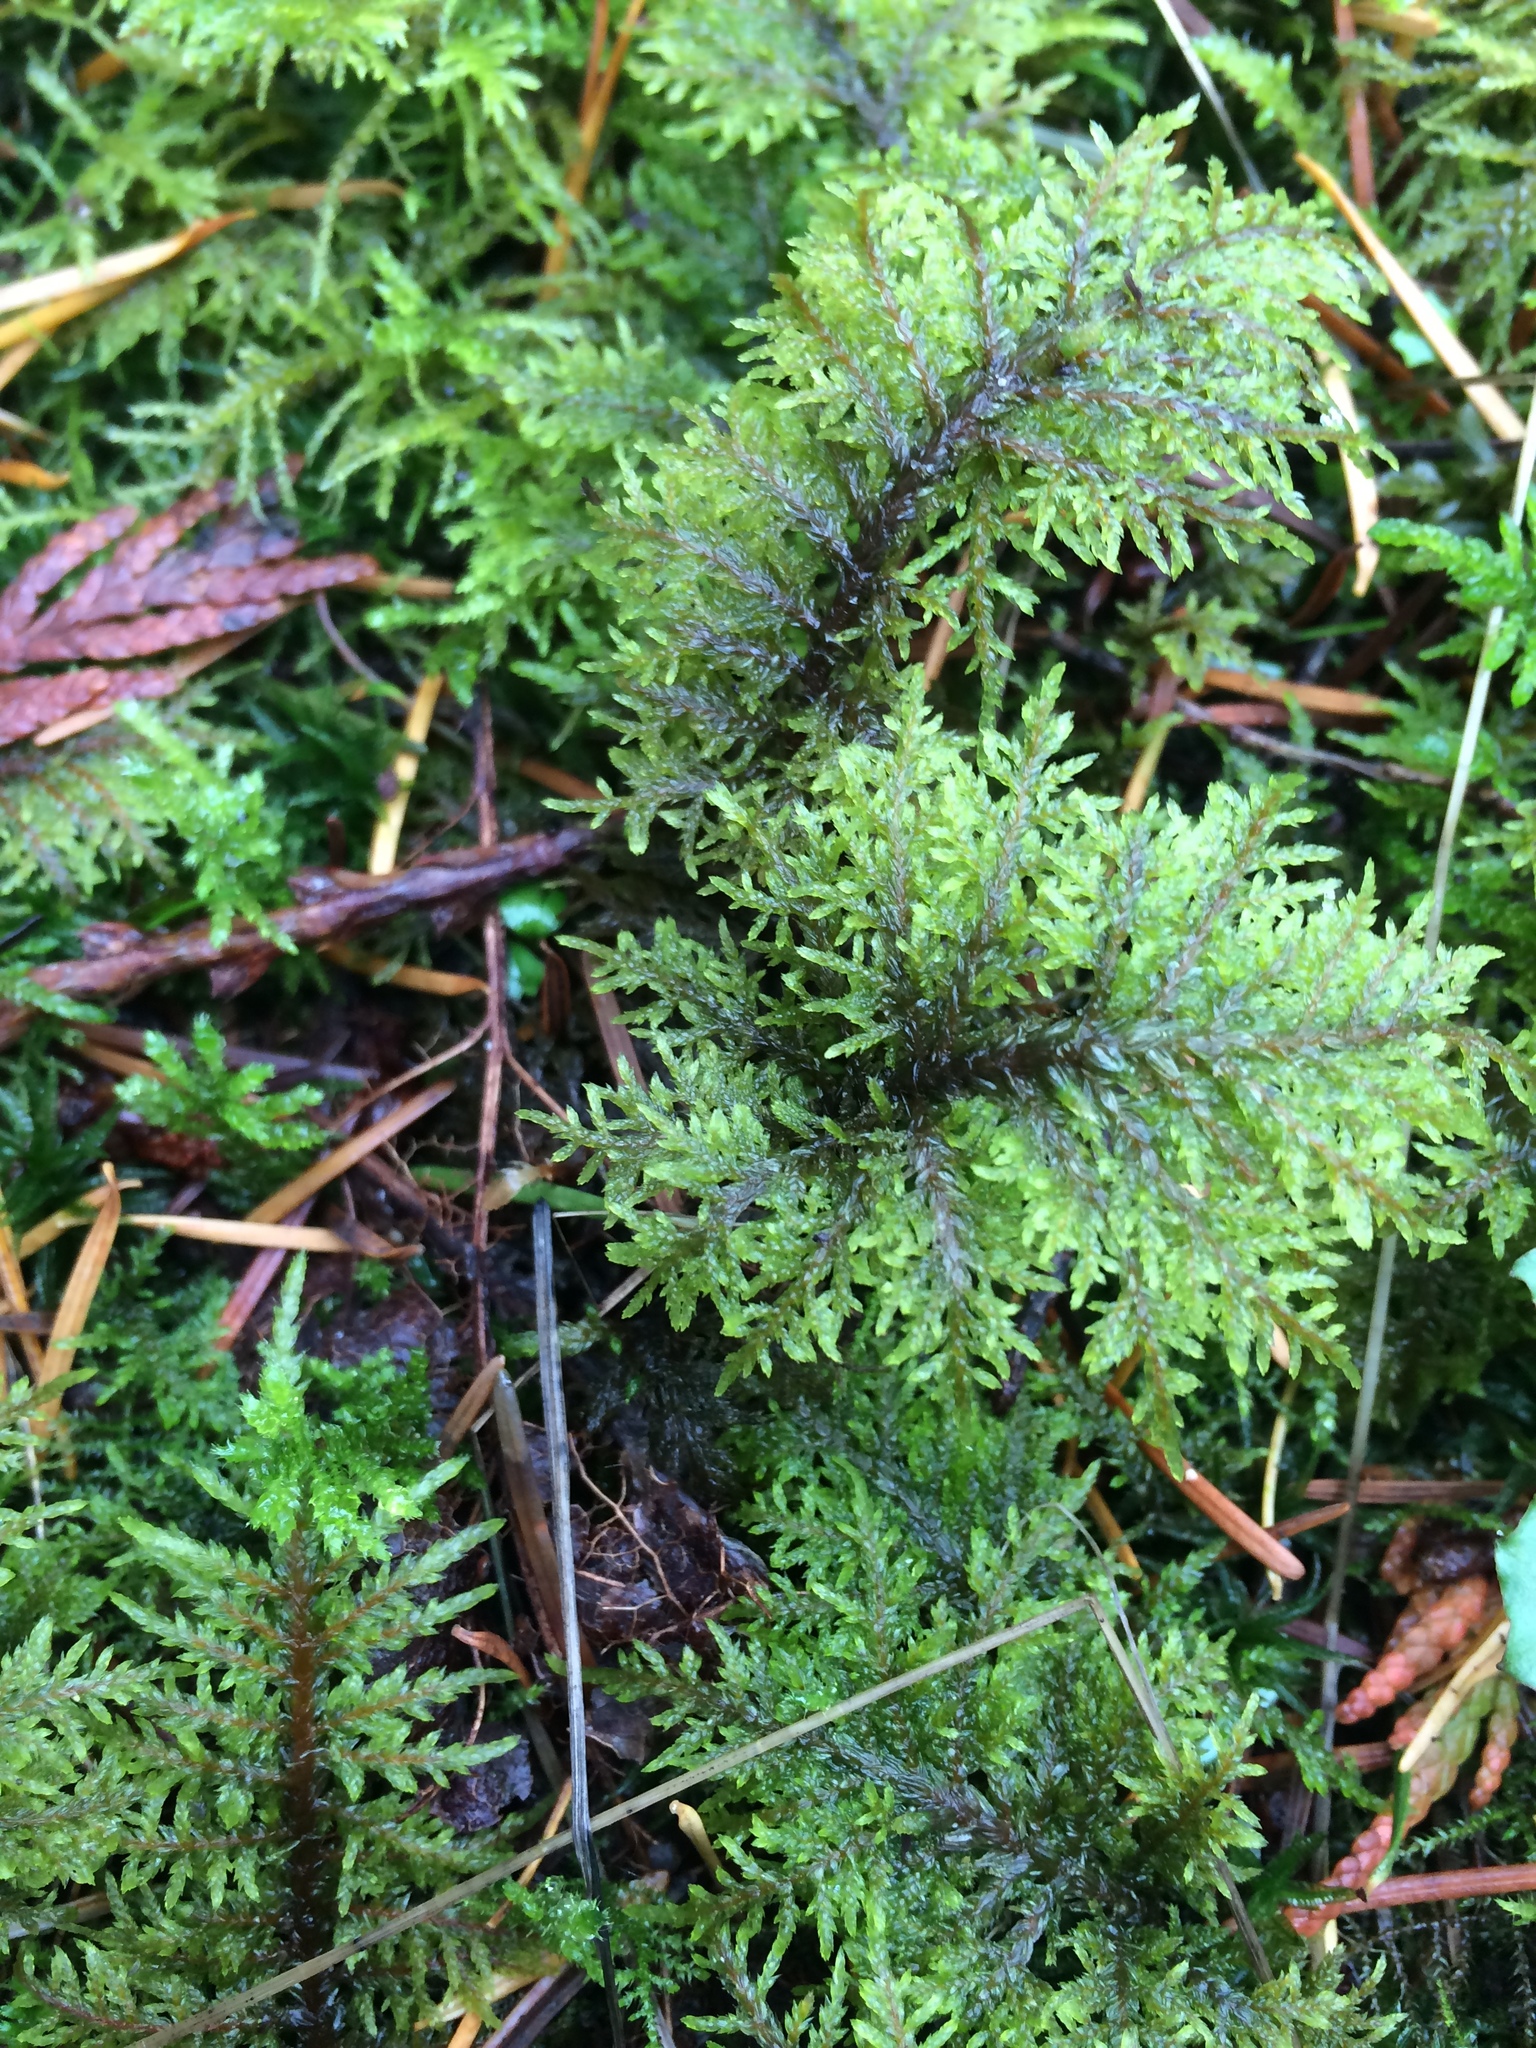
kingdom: Plantae
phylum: Bryophyta
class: Bryopsida
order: Hypnales
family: Hylocomiaceae
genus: Hylocomium
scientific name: Hylocomium splendens
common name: Stairstep moss
